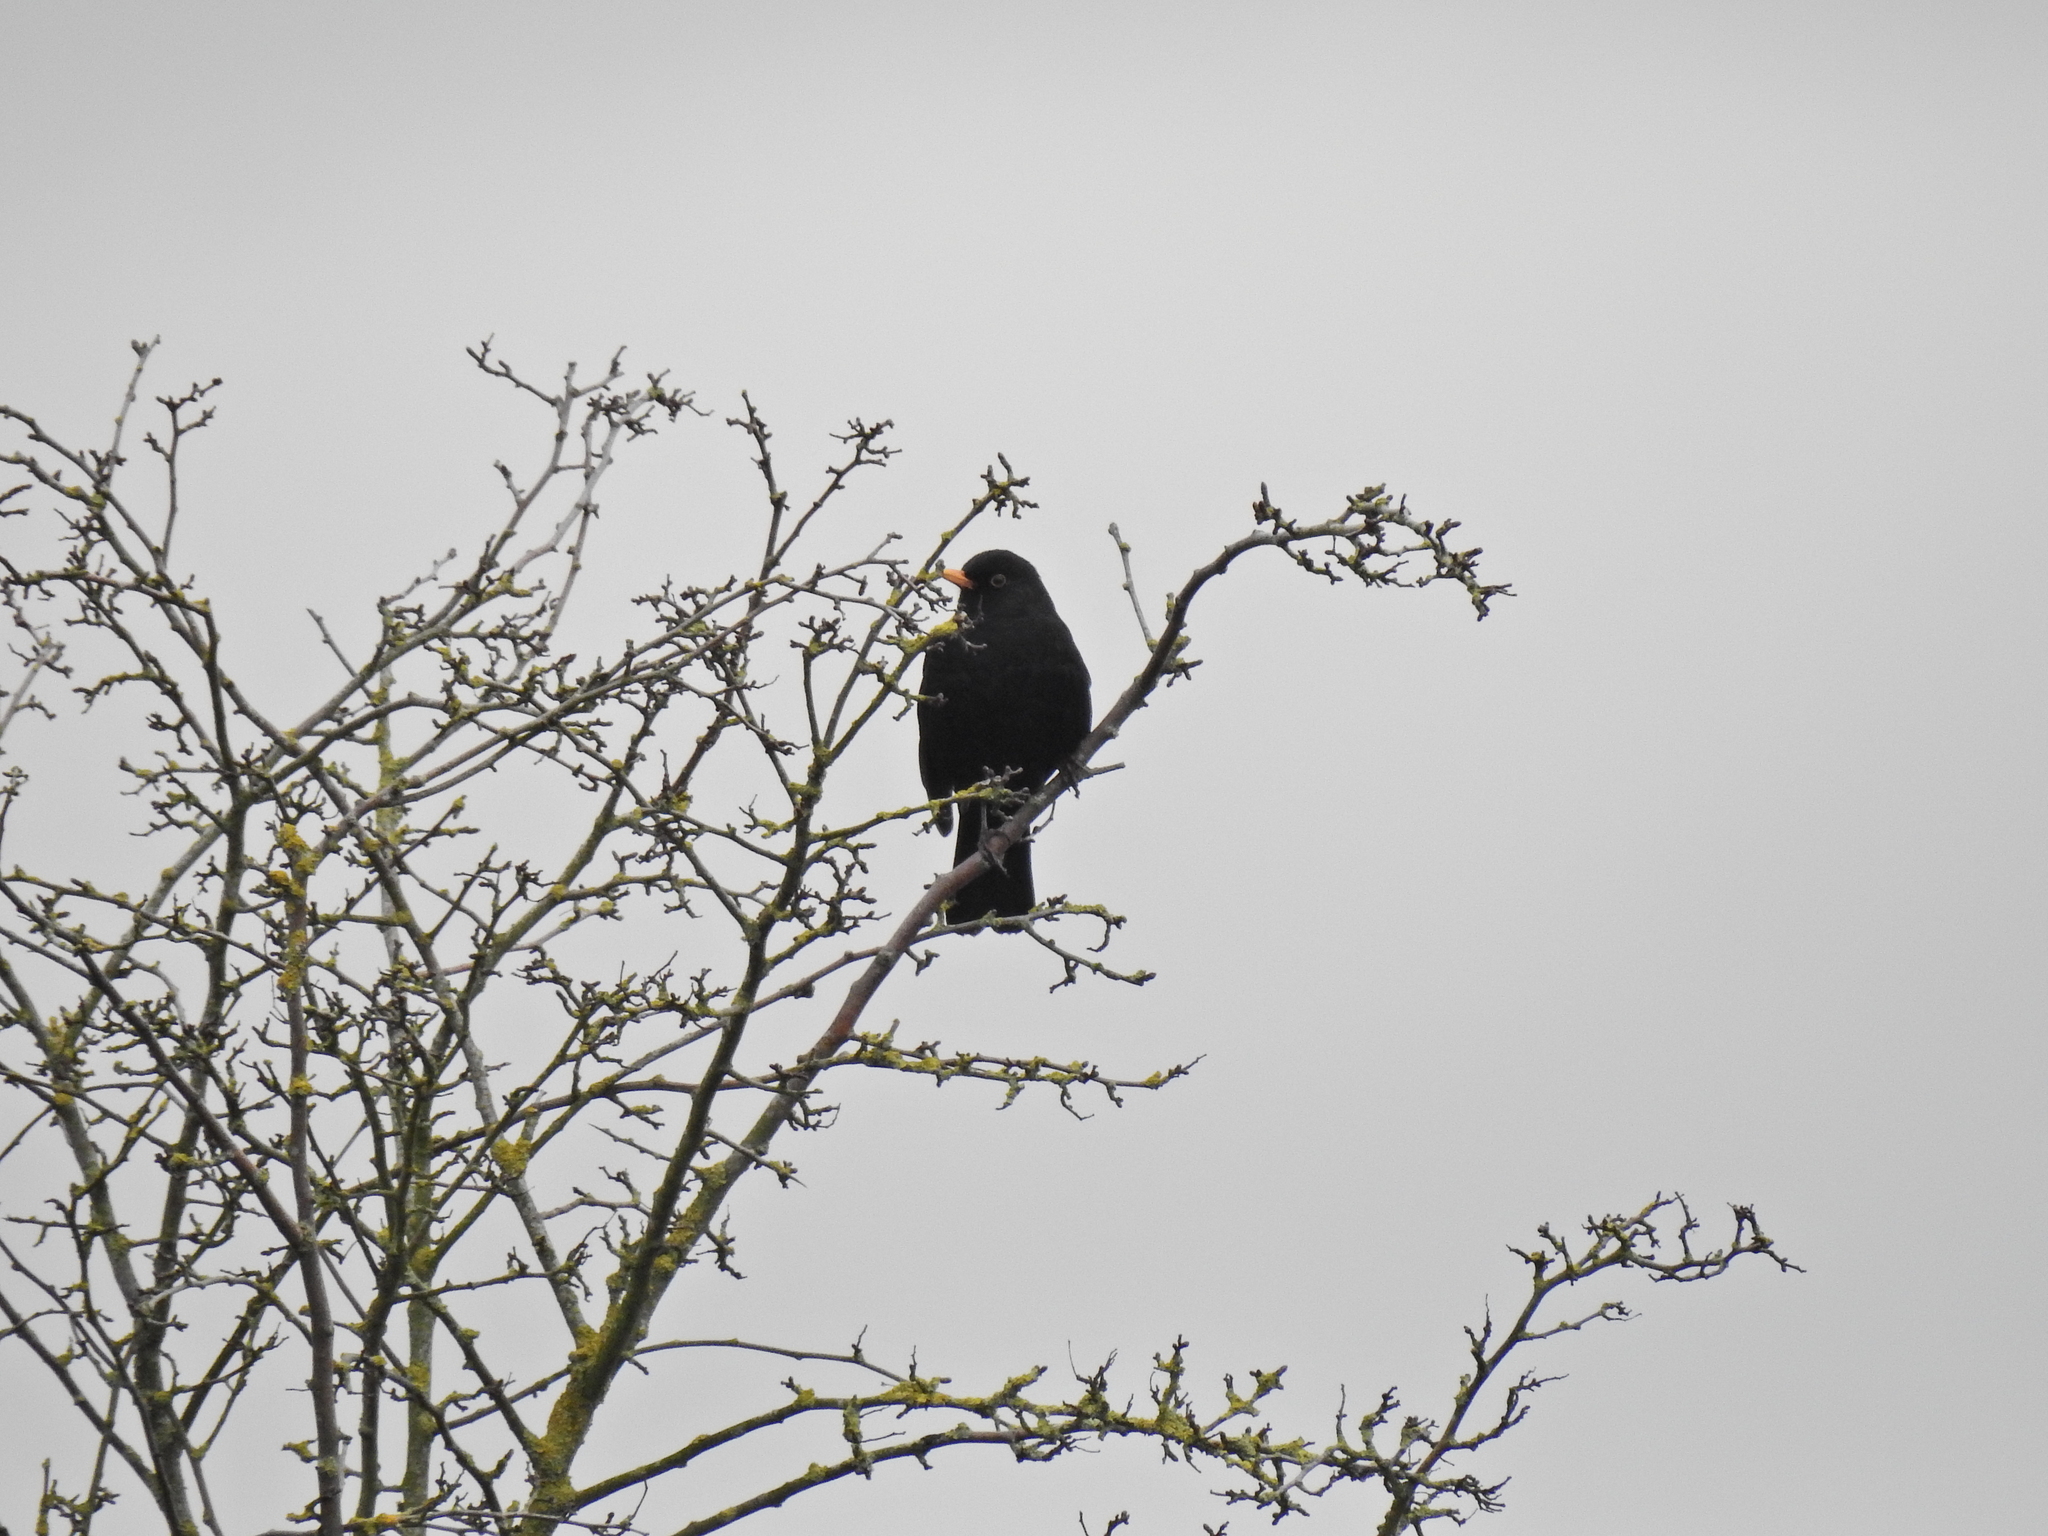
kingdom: Animalia
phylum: Chordata
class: Aves
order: Passeriformes
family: Turdidae
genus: Turdus
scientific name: Turdus merula
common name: Common blackbird
